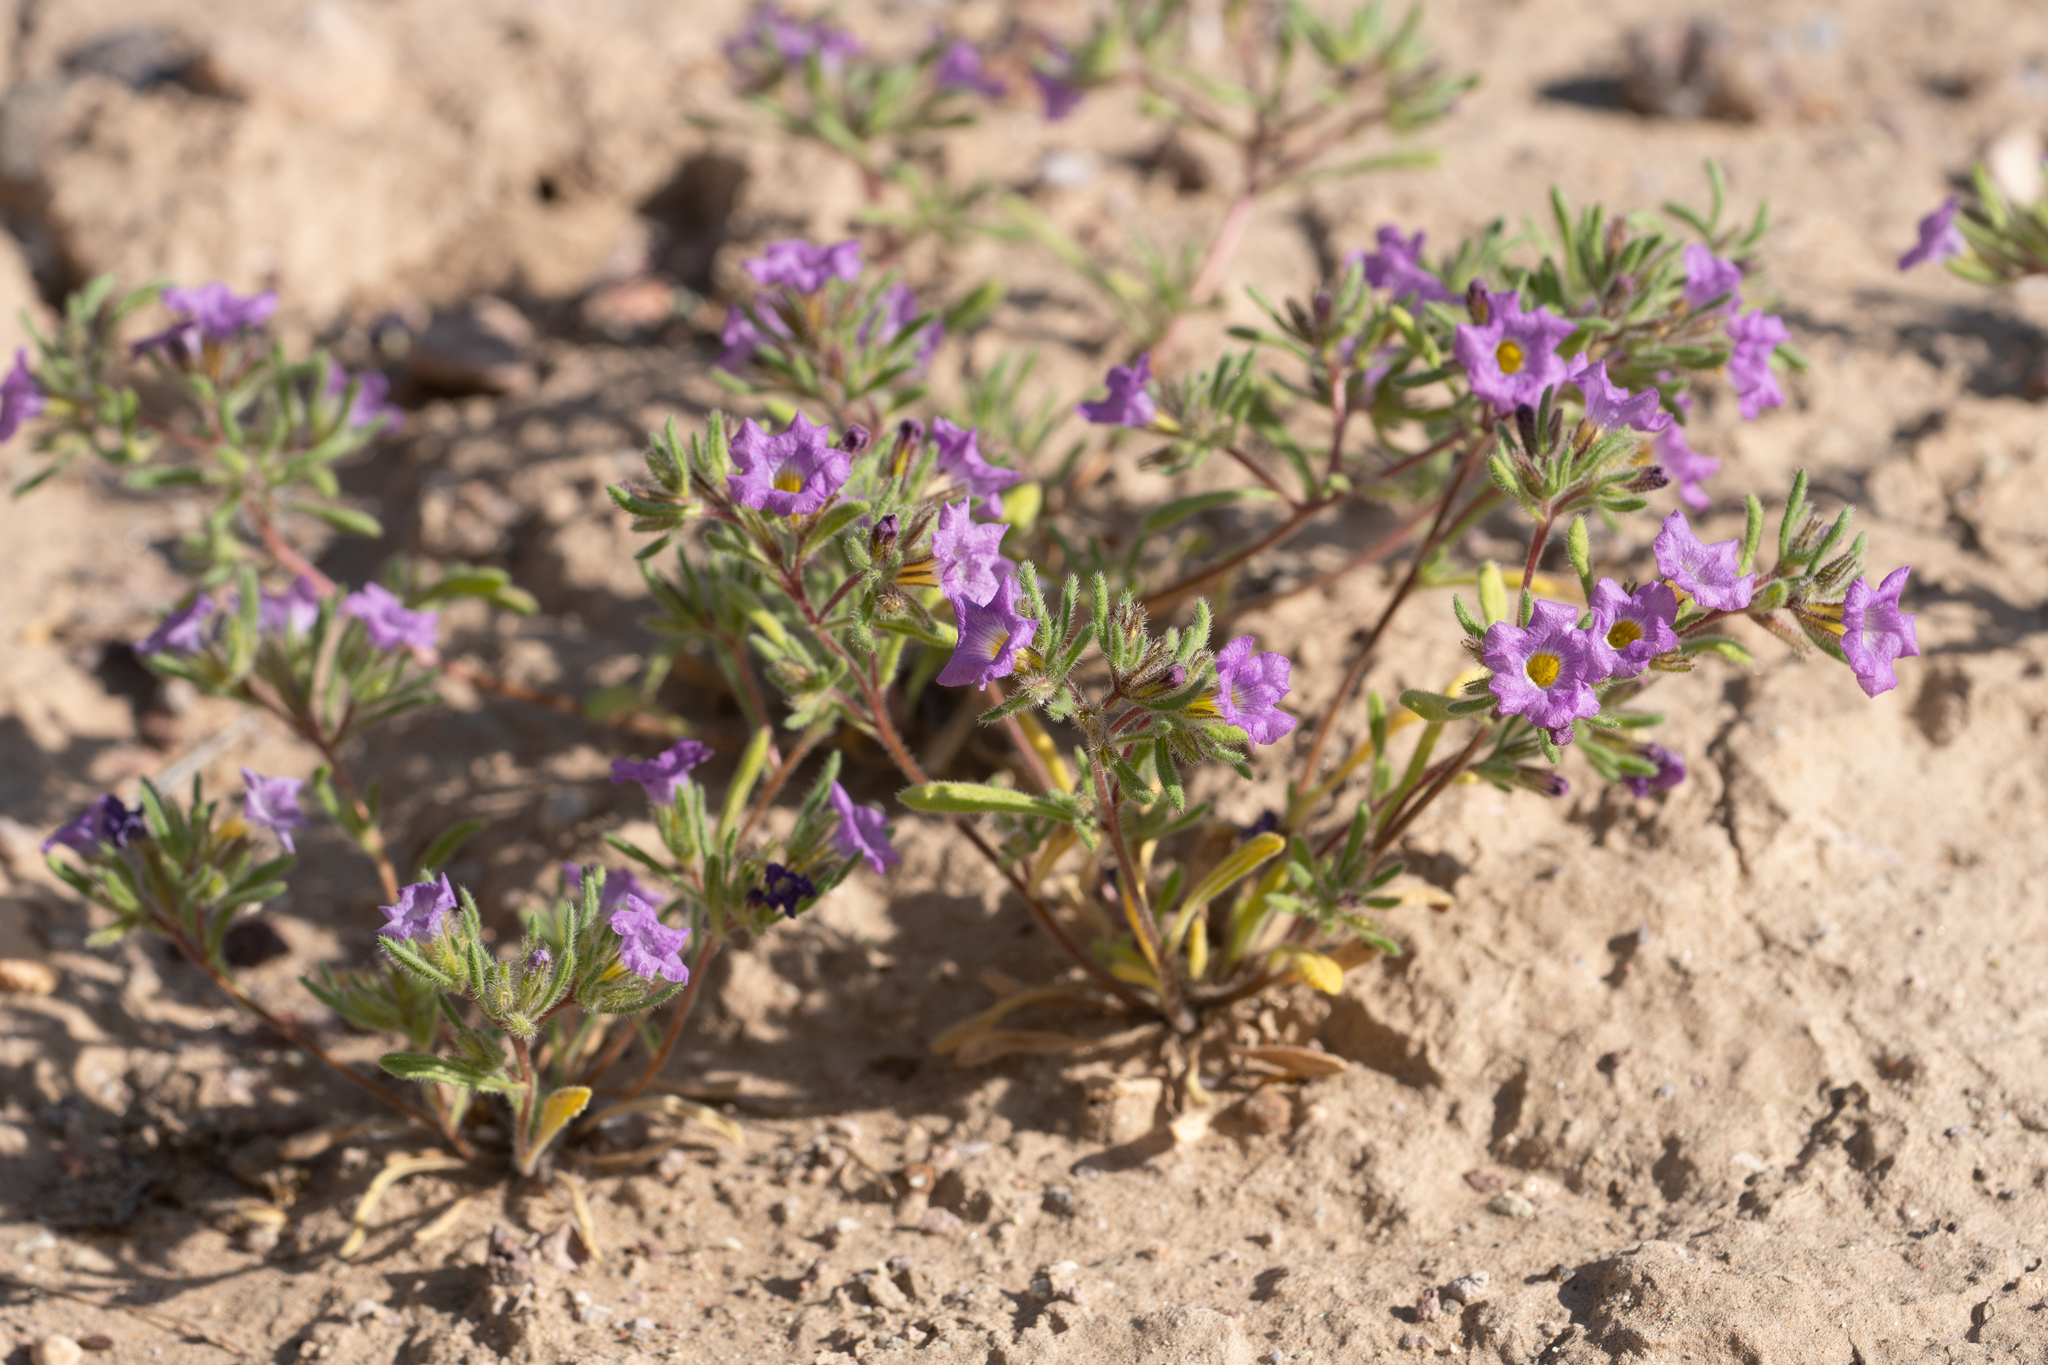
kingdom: Plantae
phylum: Tracheophyta
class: Magnoliopsida
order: Boraginales
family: Namaceae
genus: Nama
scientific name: Nama demissa
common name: Leafy nama
